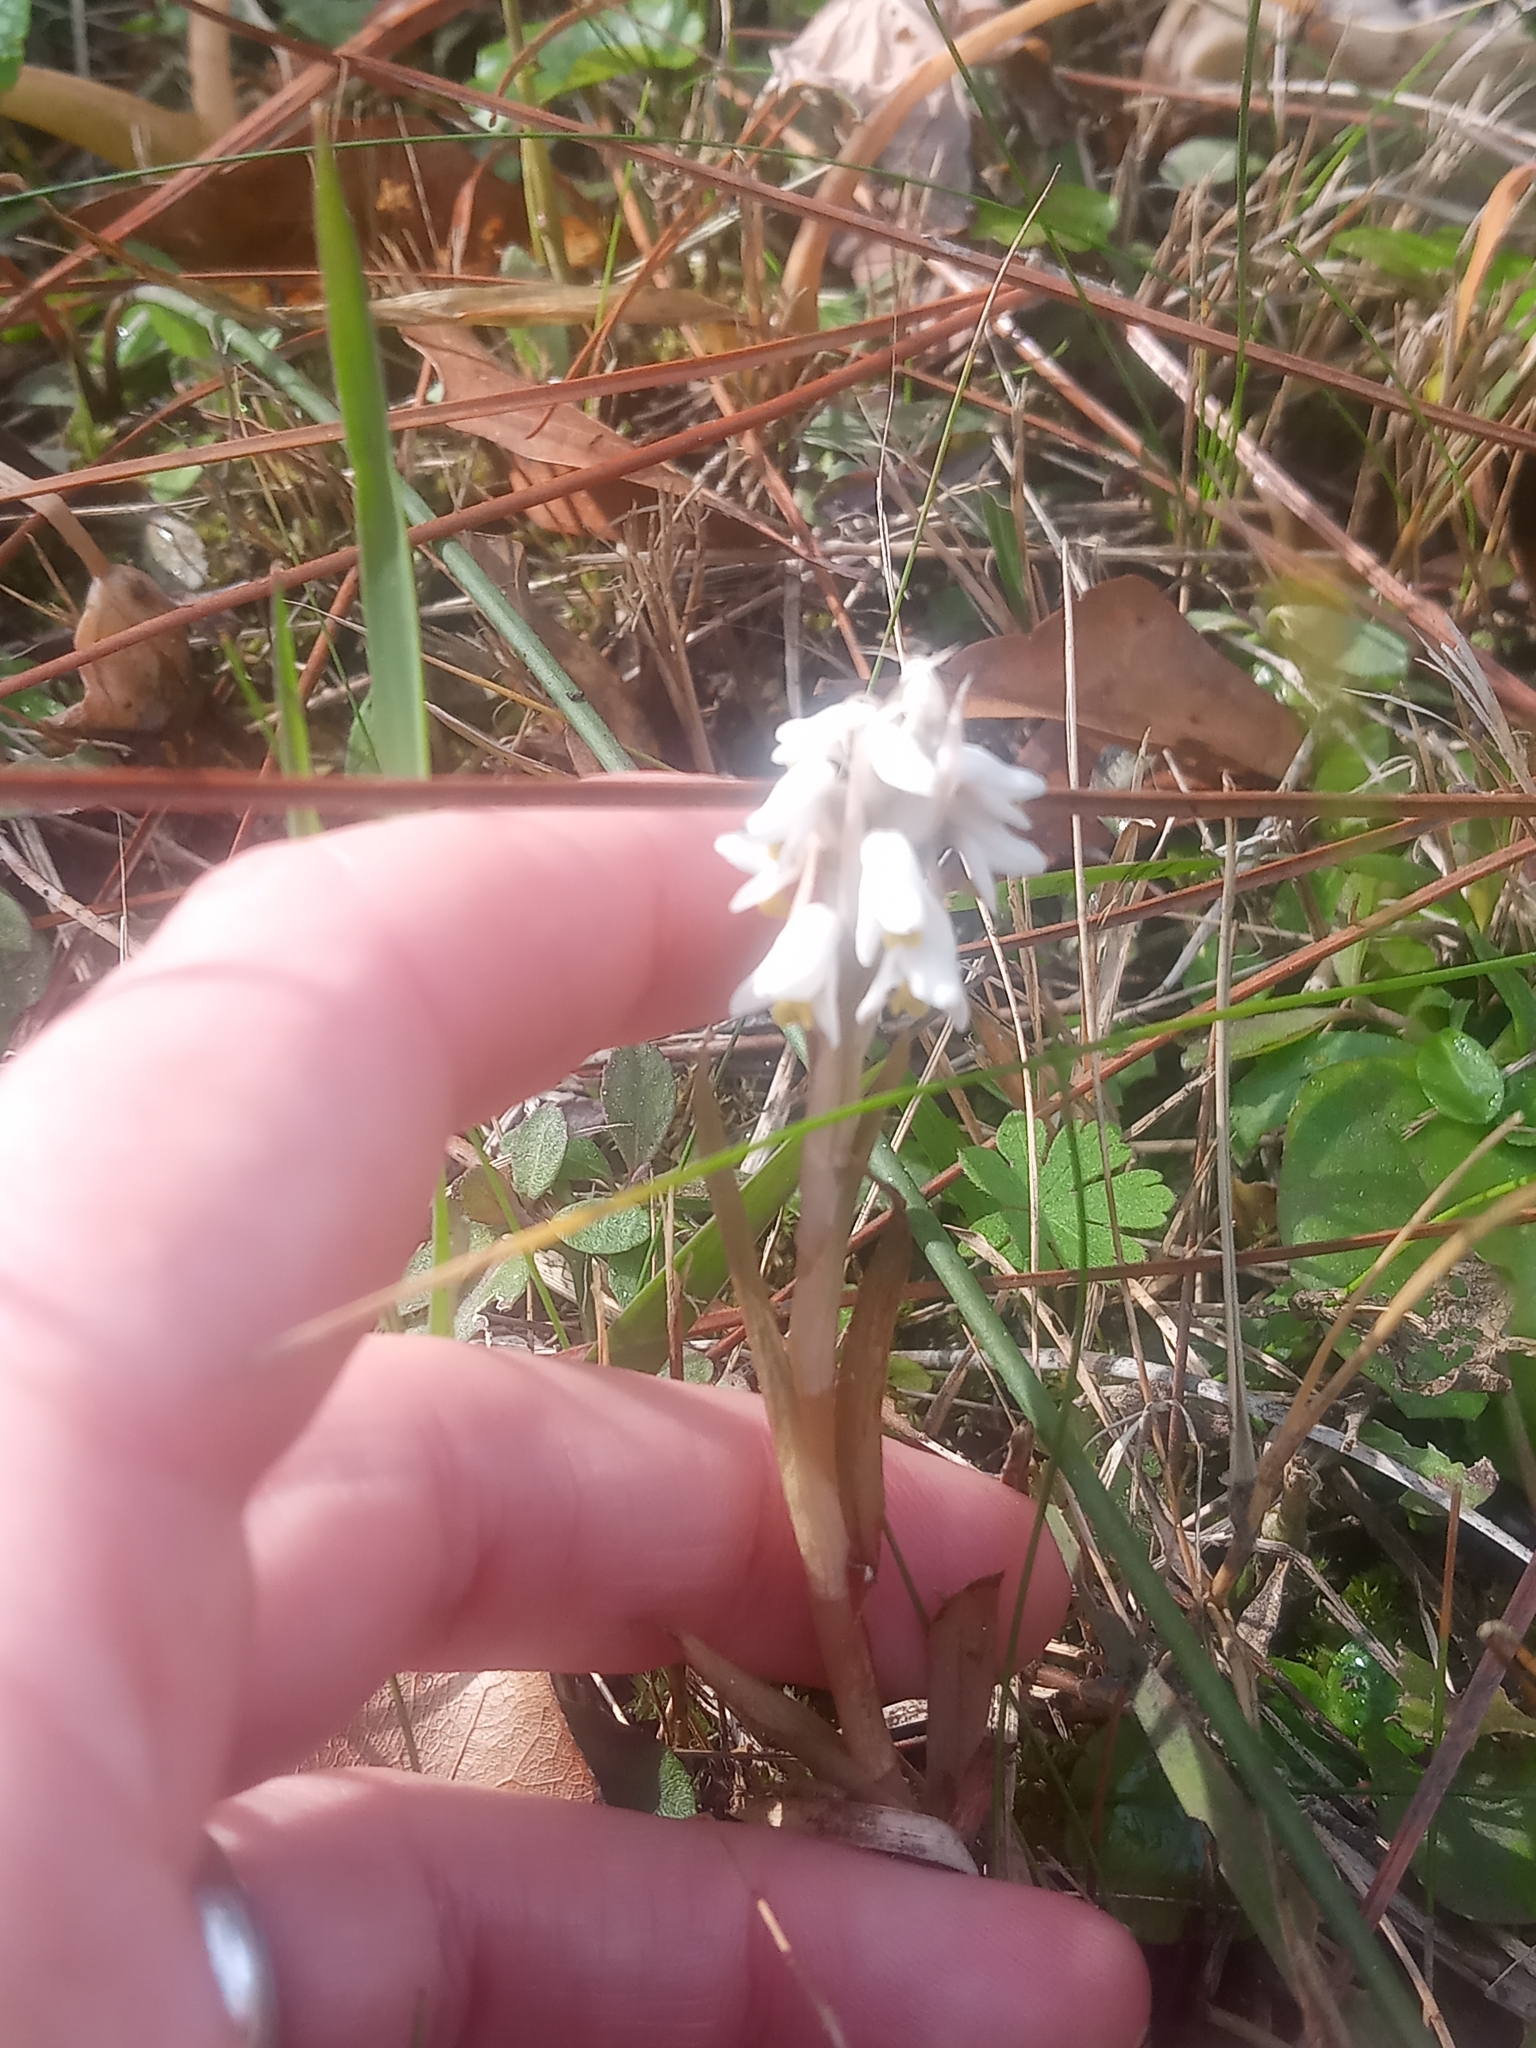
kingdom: Plantae
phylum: Tracheophyta
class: Liliopsida
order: Asparagales
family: Orchidaceae
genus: Zeuxine
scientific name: Zeuxine strateumatica
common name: Soldier's orchid
